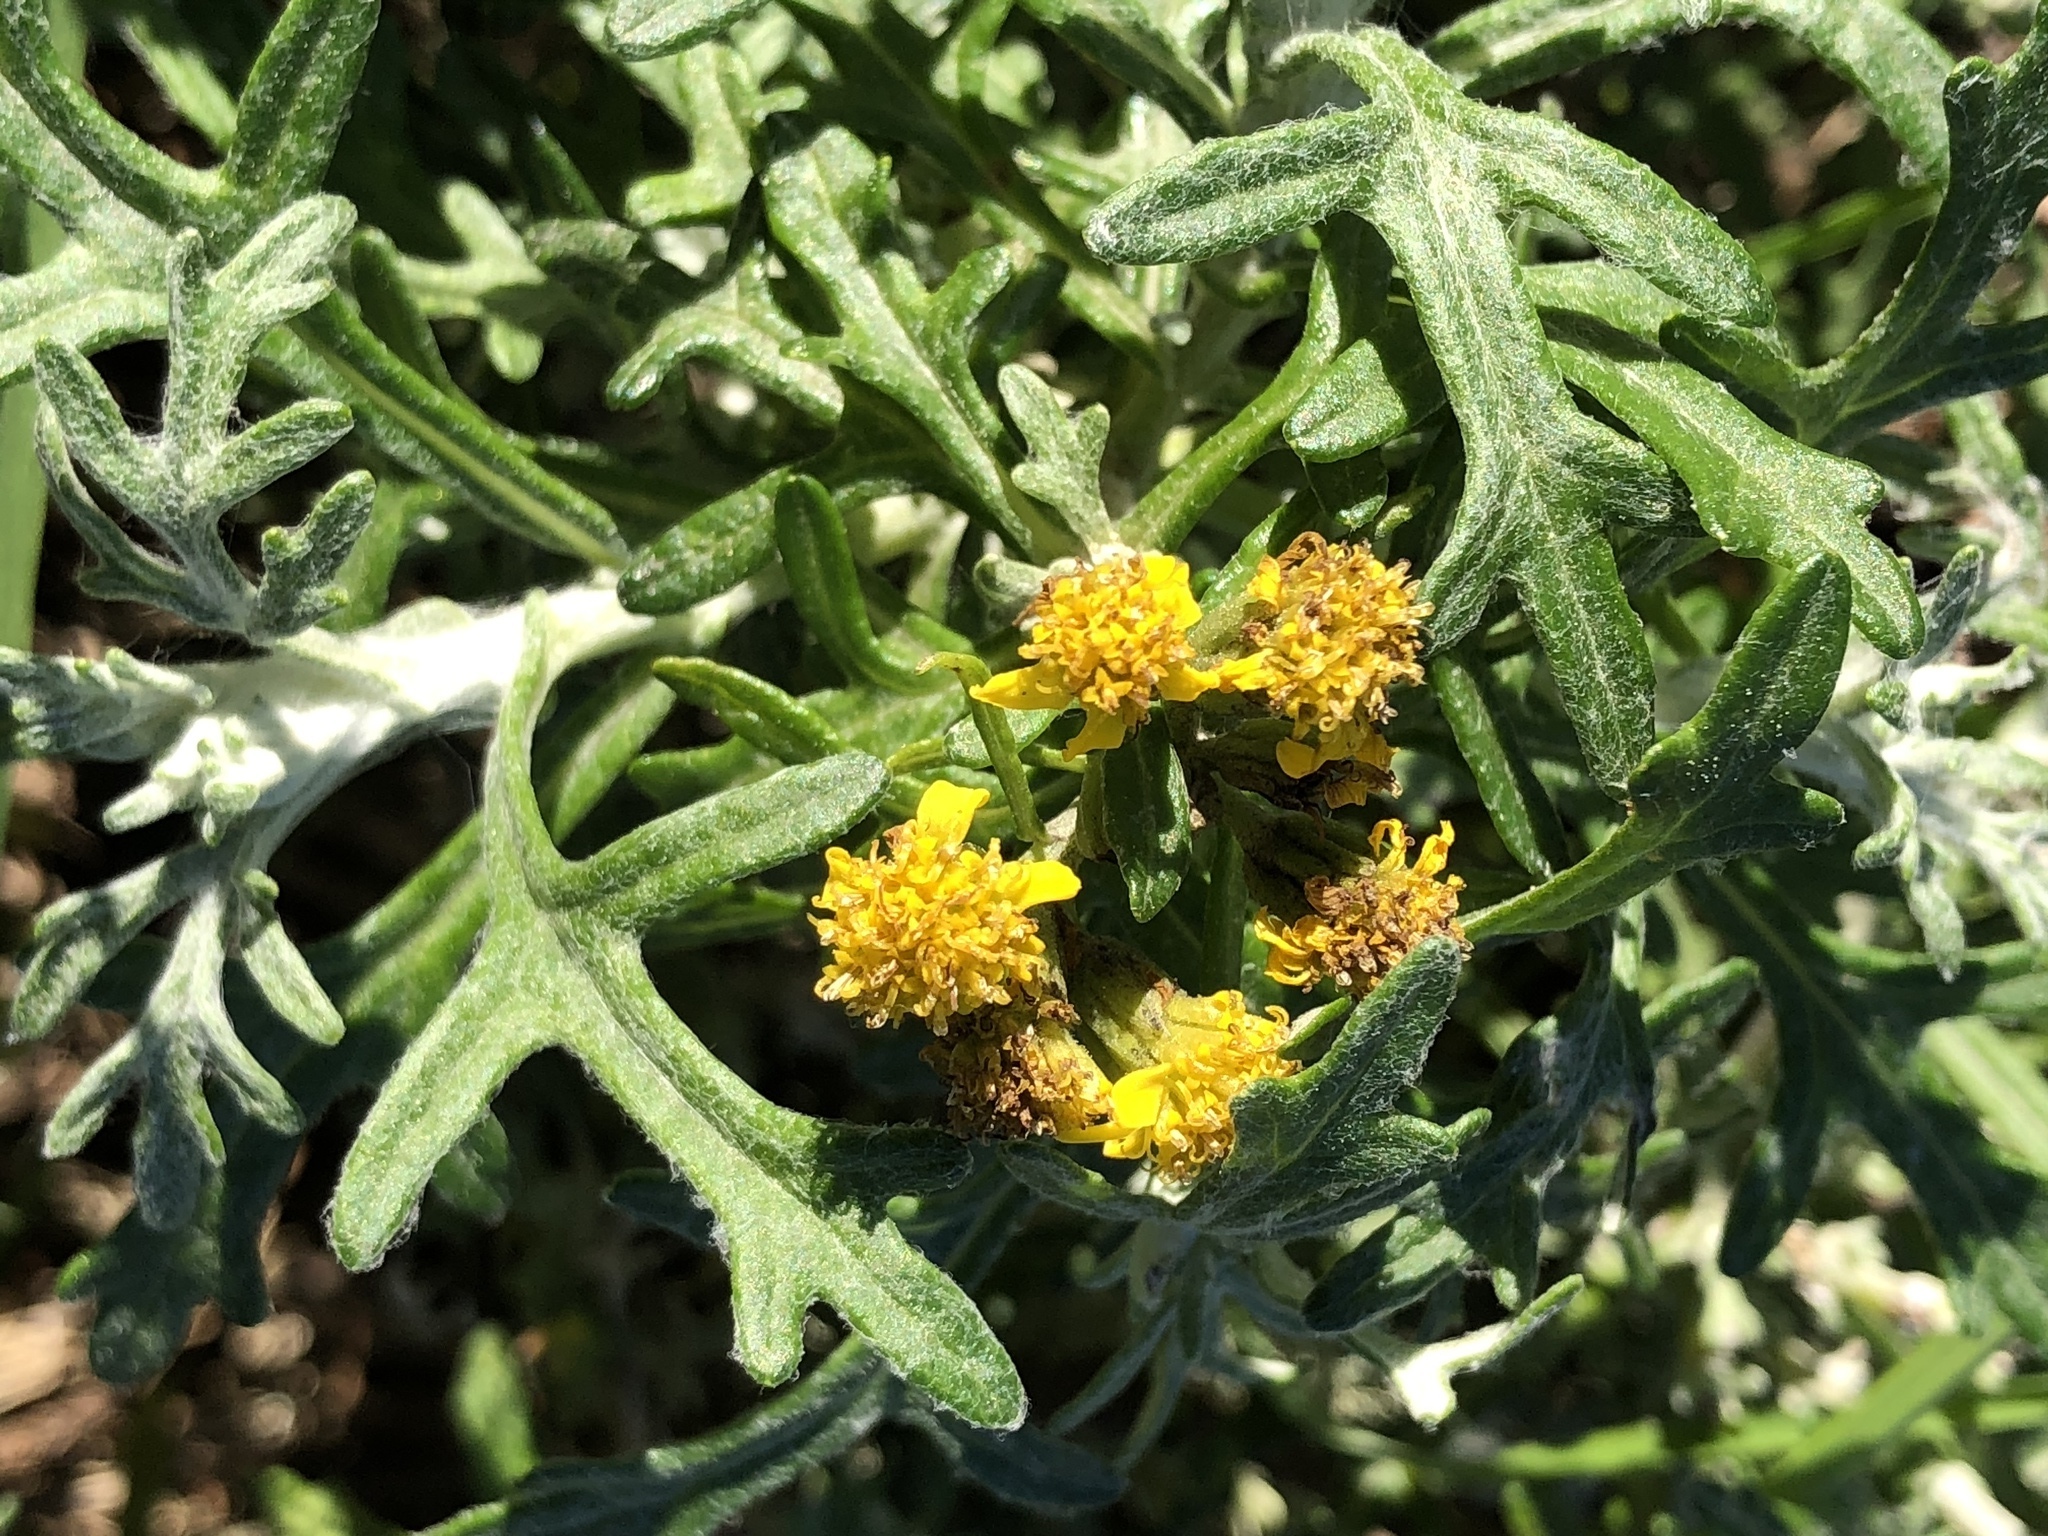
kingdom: Plantae
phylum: Tracheophyta
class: Magnoliopsida
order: Asterales
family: Asteraceae
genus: Eriophyllum
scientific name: Eriophyllum staechadifolium
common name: Lizardtail
